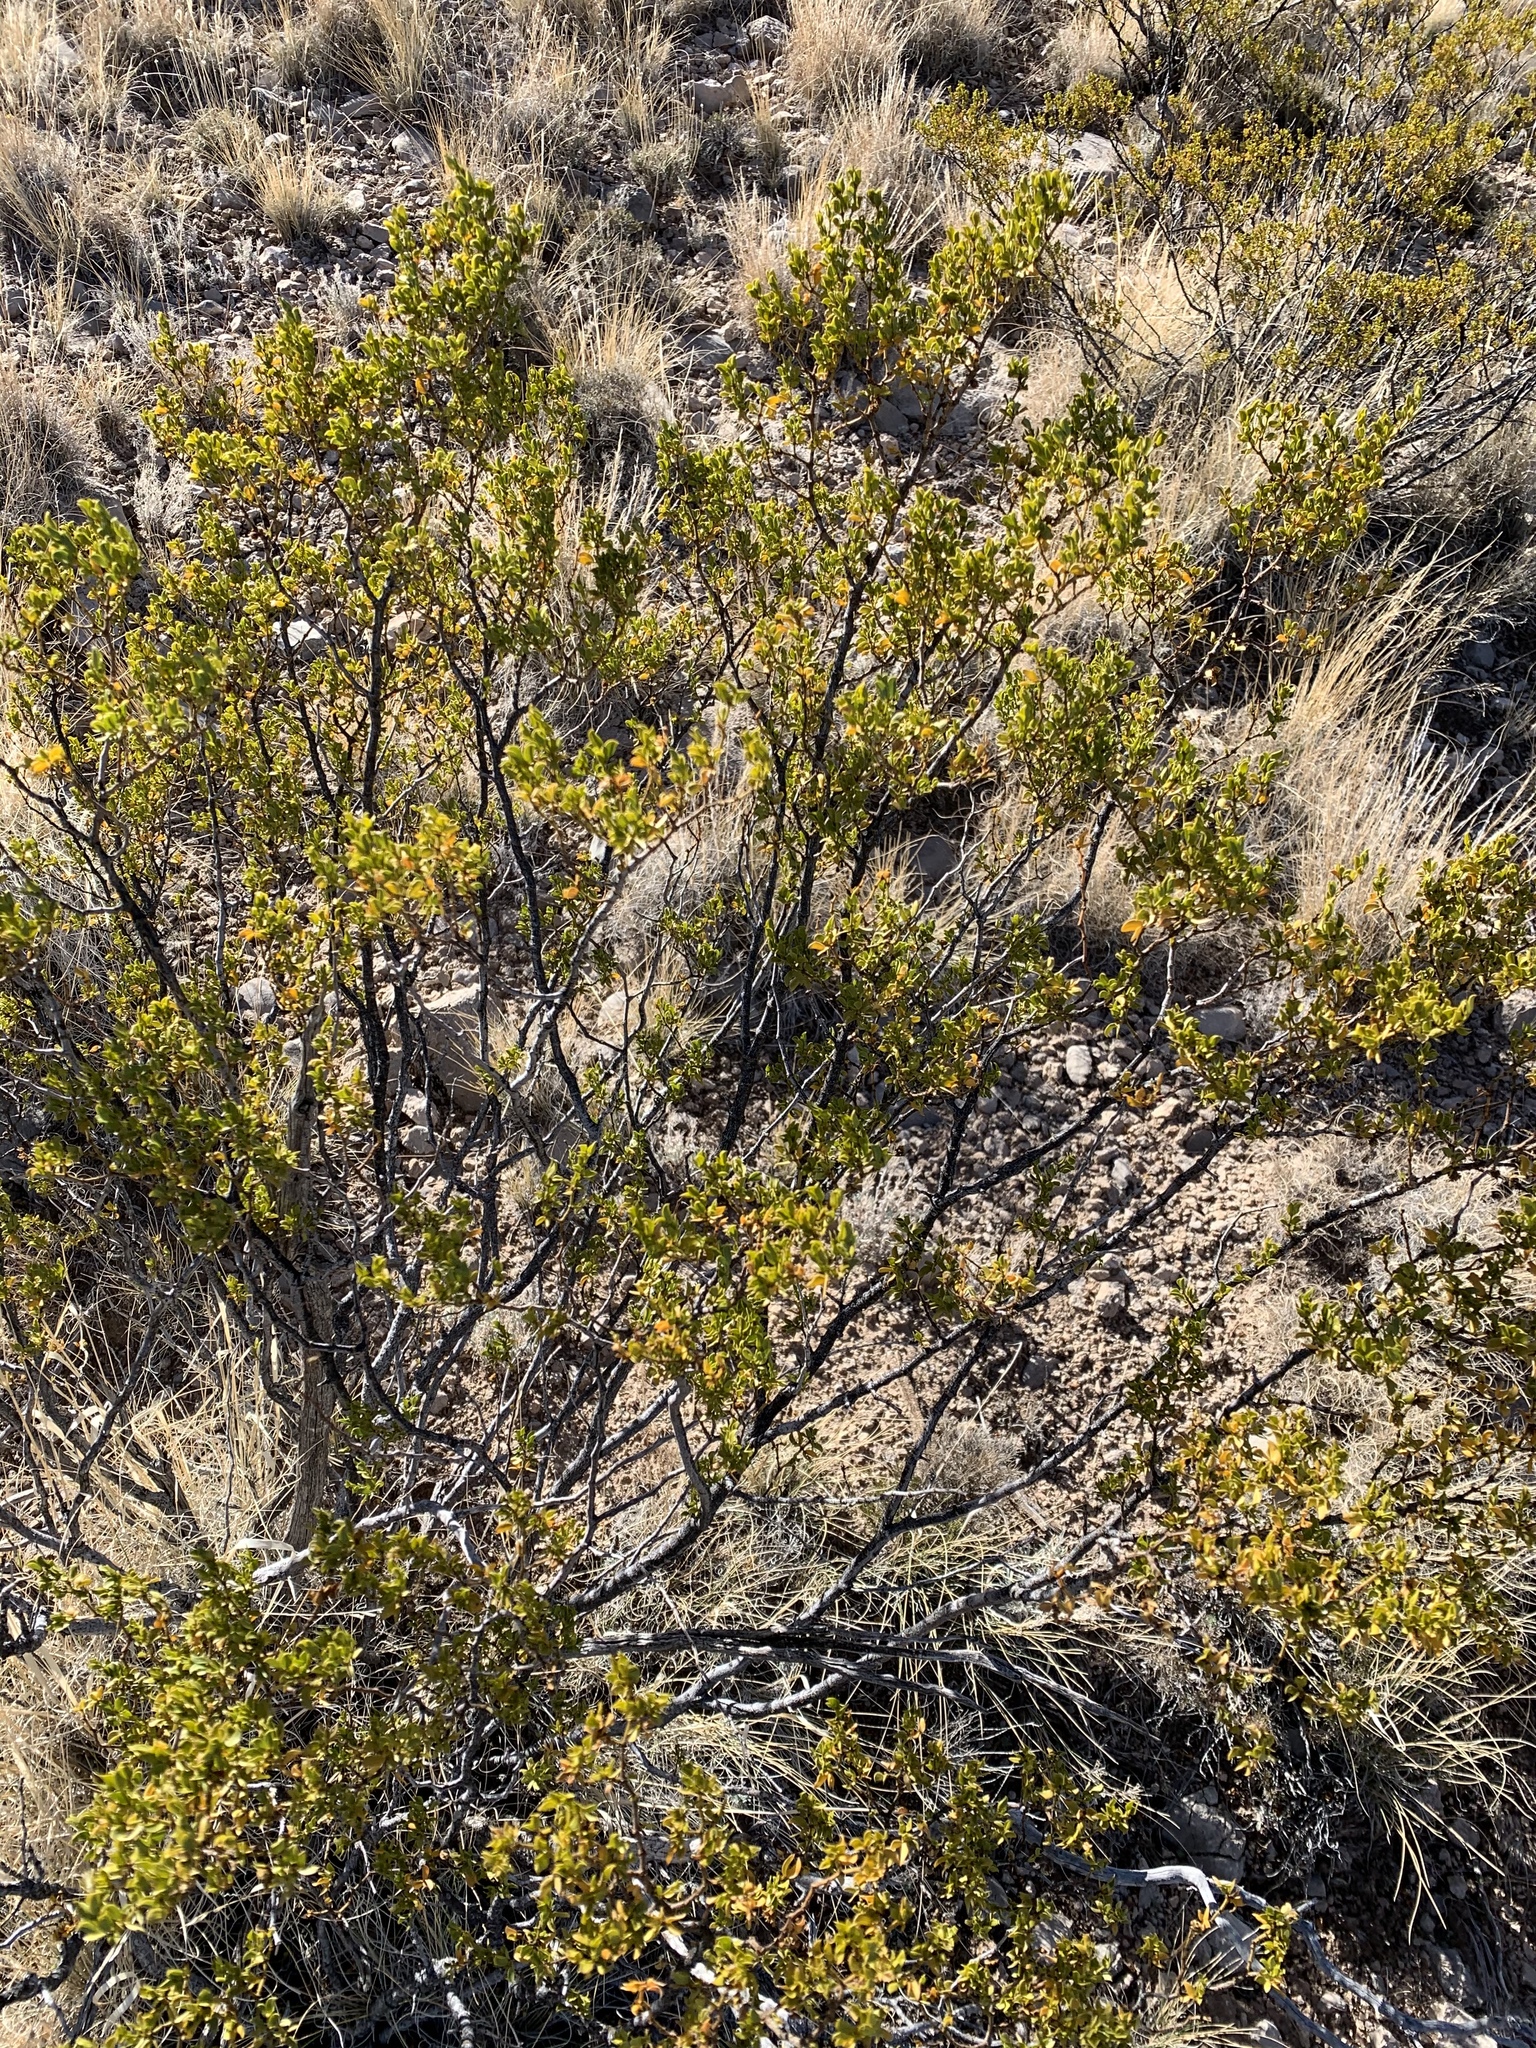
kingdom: Plantae
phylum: Tracheophyta
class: Magnoliopsida
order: Zygophyllales
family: Zygophyllaceae
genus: Larrea
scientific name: Larrea tridentata
